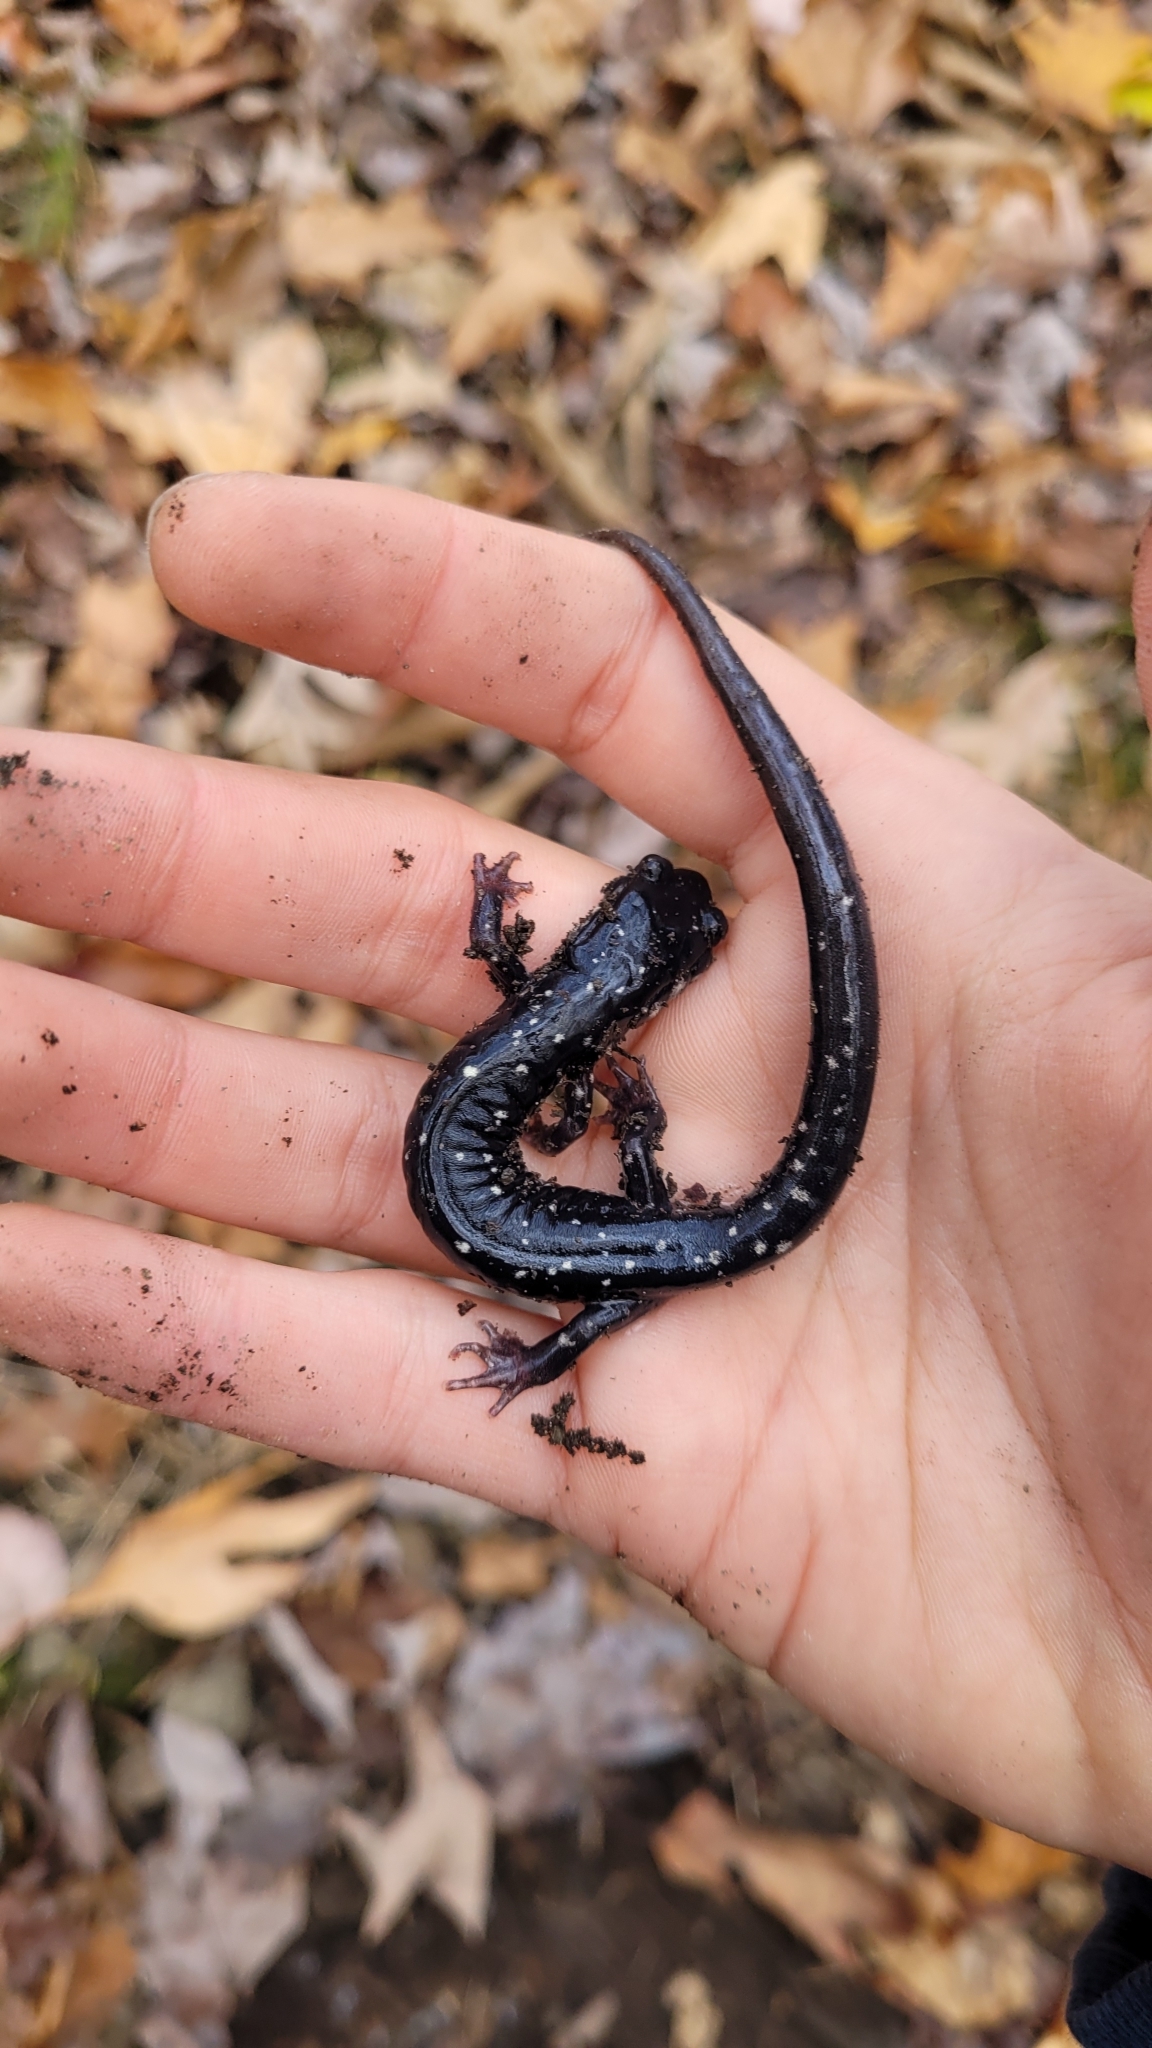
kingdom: Animalia
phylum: Chordata
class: Amphibia
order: Caudata
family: Plethodontidae
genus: Plethodon
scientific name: Plethodon glutinosus
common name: Northern slimy salamander
